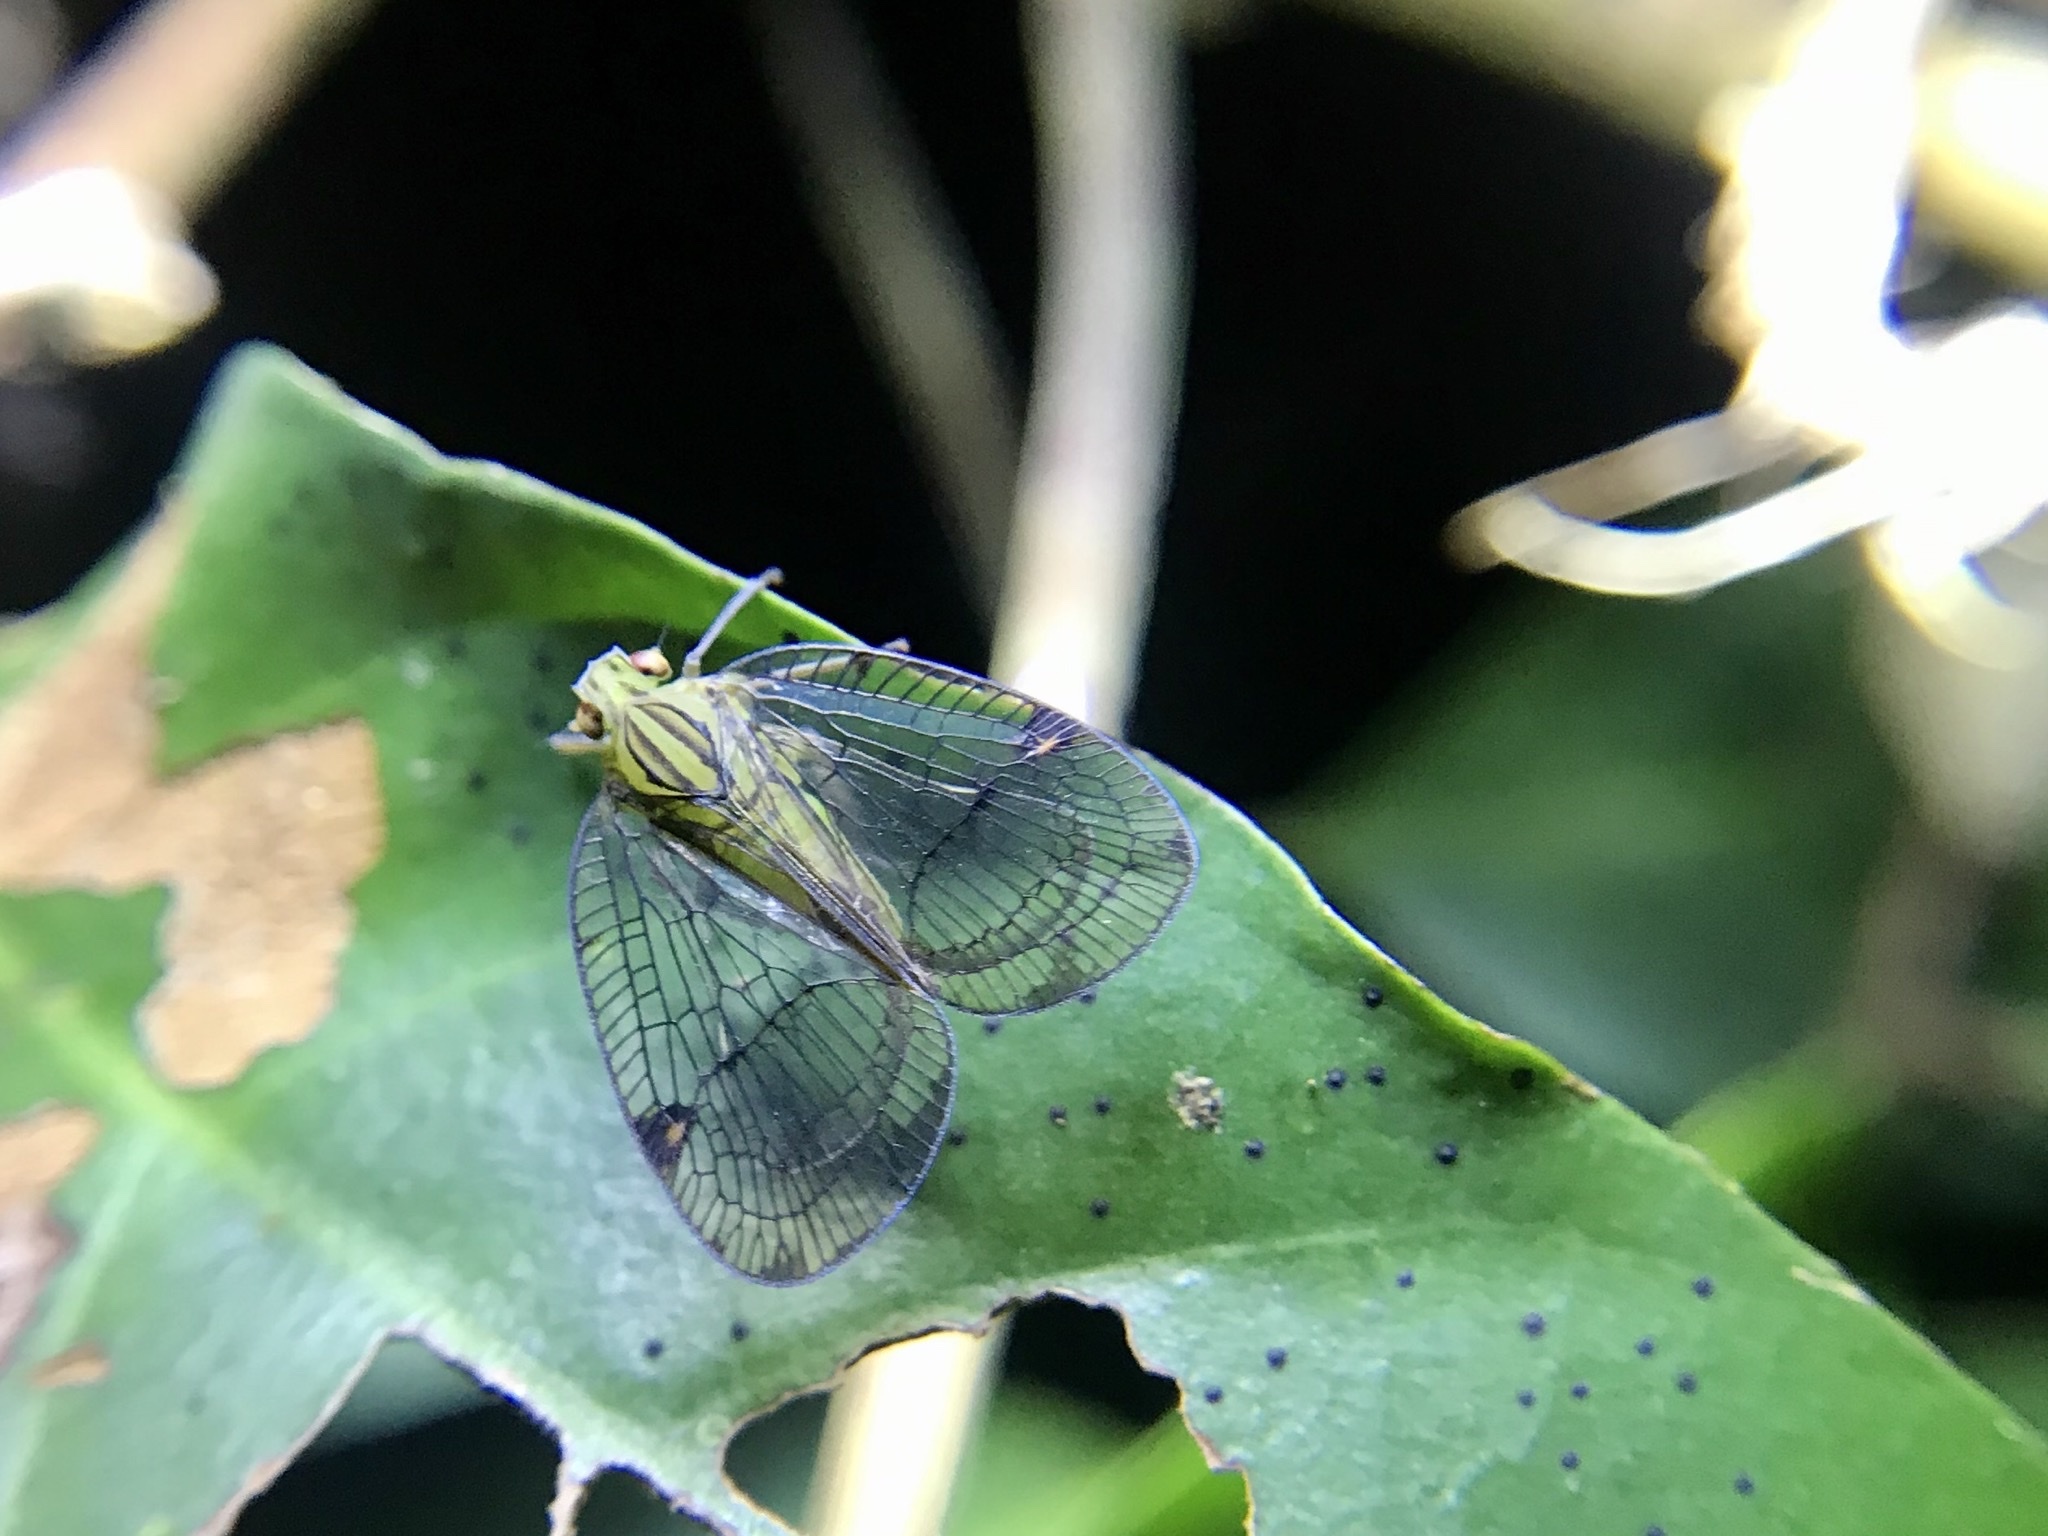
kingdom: Animalia
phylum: Arthropoda
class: Insecta
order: Hemiptera
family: Nogodinidae
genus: Biolleyana
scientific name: Biolleyana costalis
